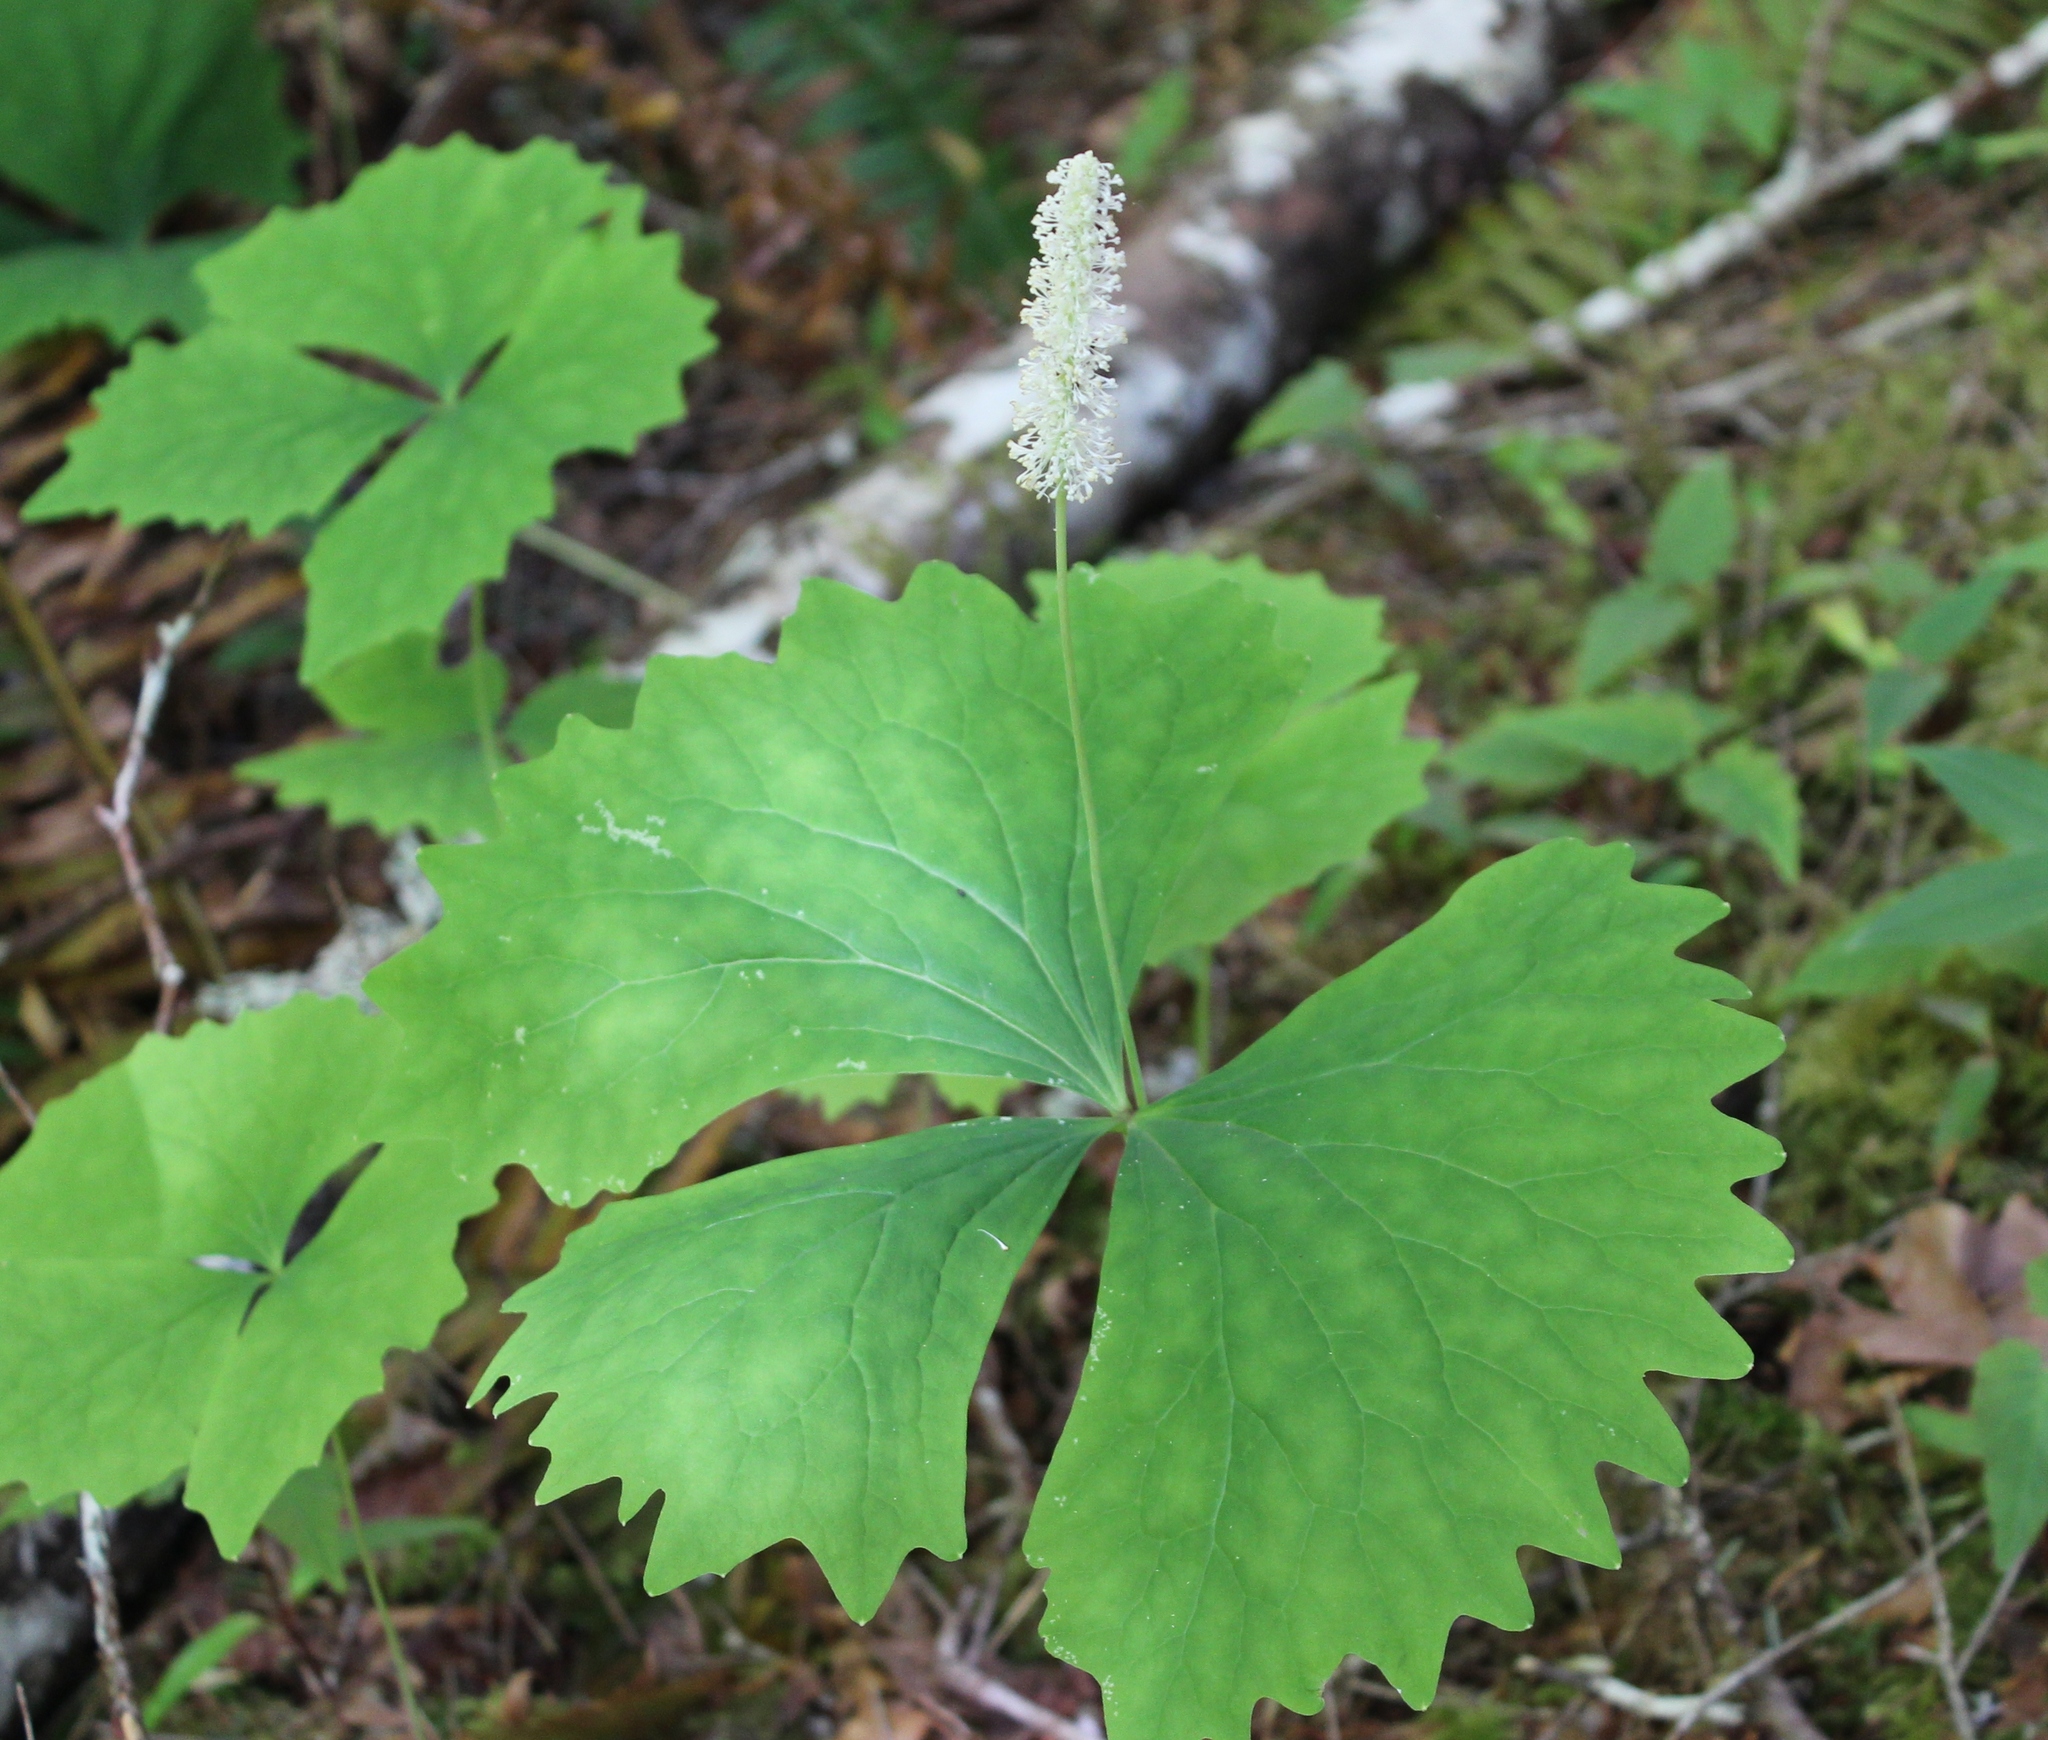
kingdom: Plantae
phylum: Tracheophyta
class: Magnoliopsida
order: Ranunculales
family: Berberidaceae
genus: Achlys
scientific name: Achlys triphylla
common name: Vanilla-leaf
